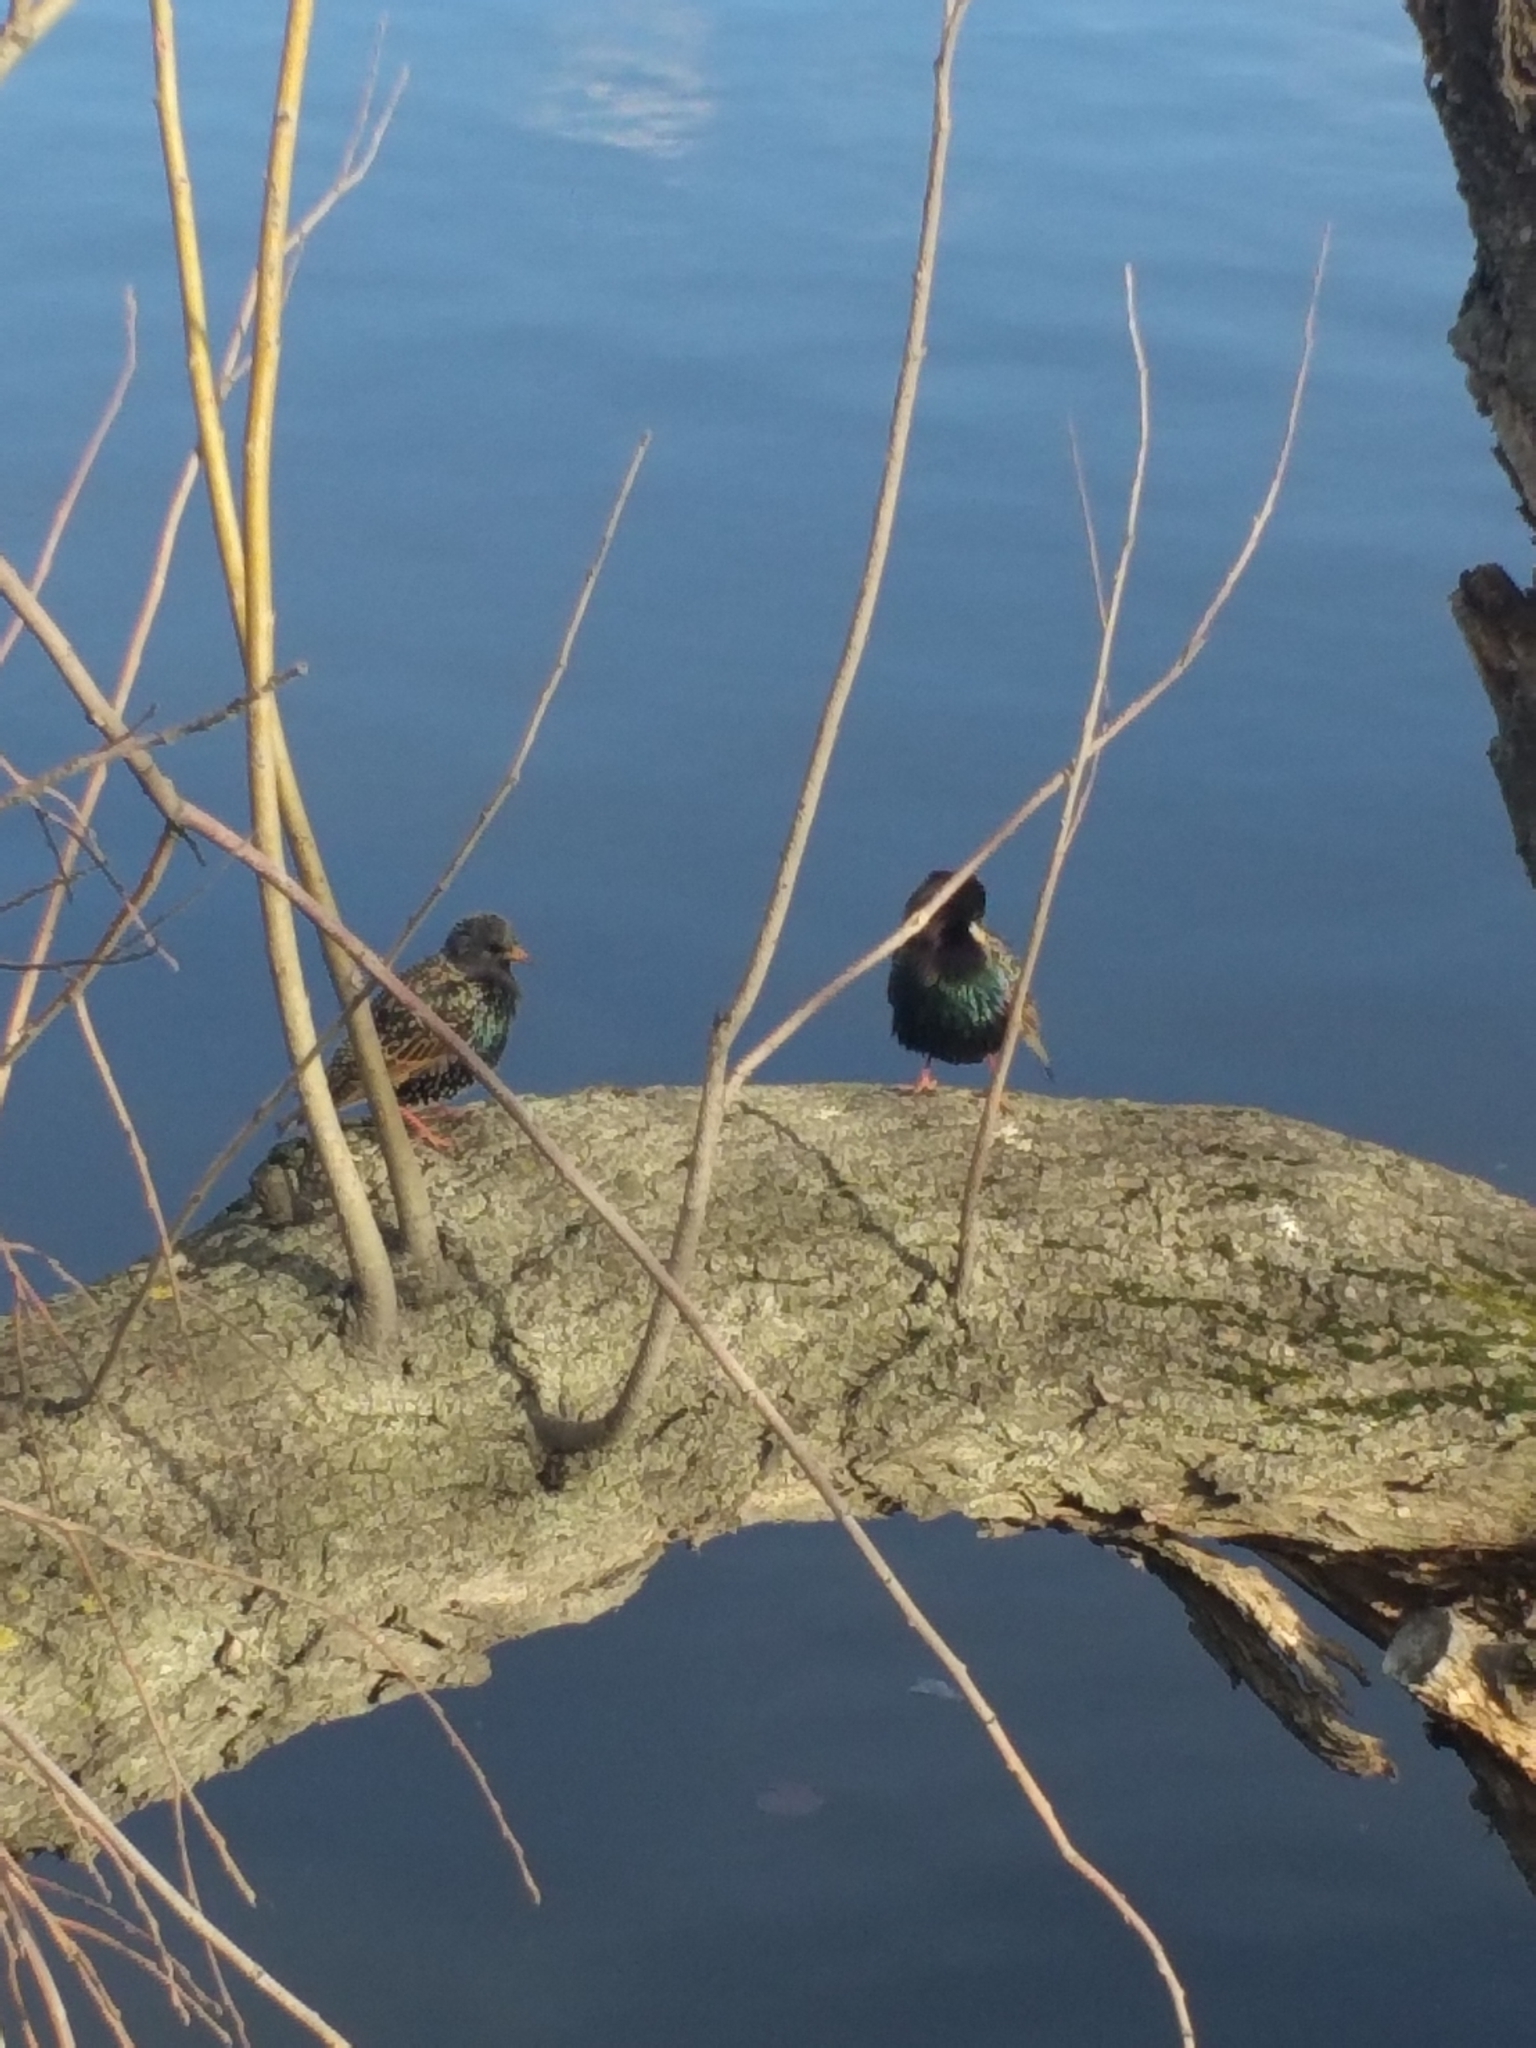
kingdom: Animalia
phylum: Chordata
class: Aves
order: Passeriformes
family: Sturnidae
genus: Sturnus
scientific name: Sturnus vulgaris
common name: Common starling
